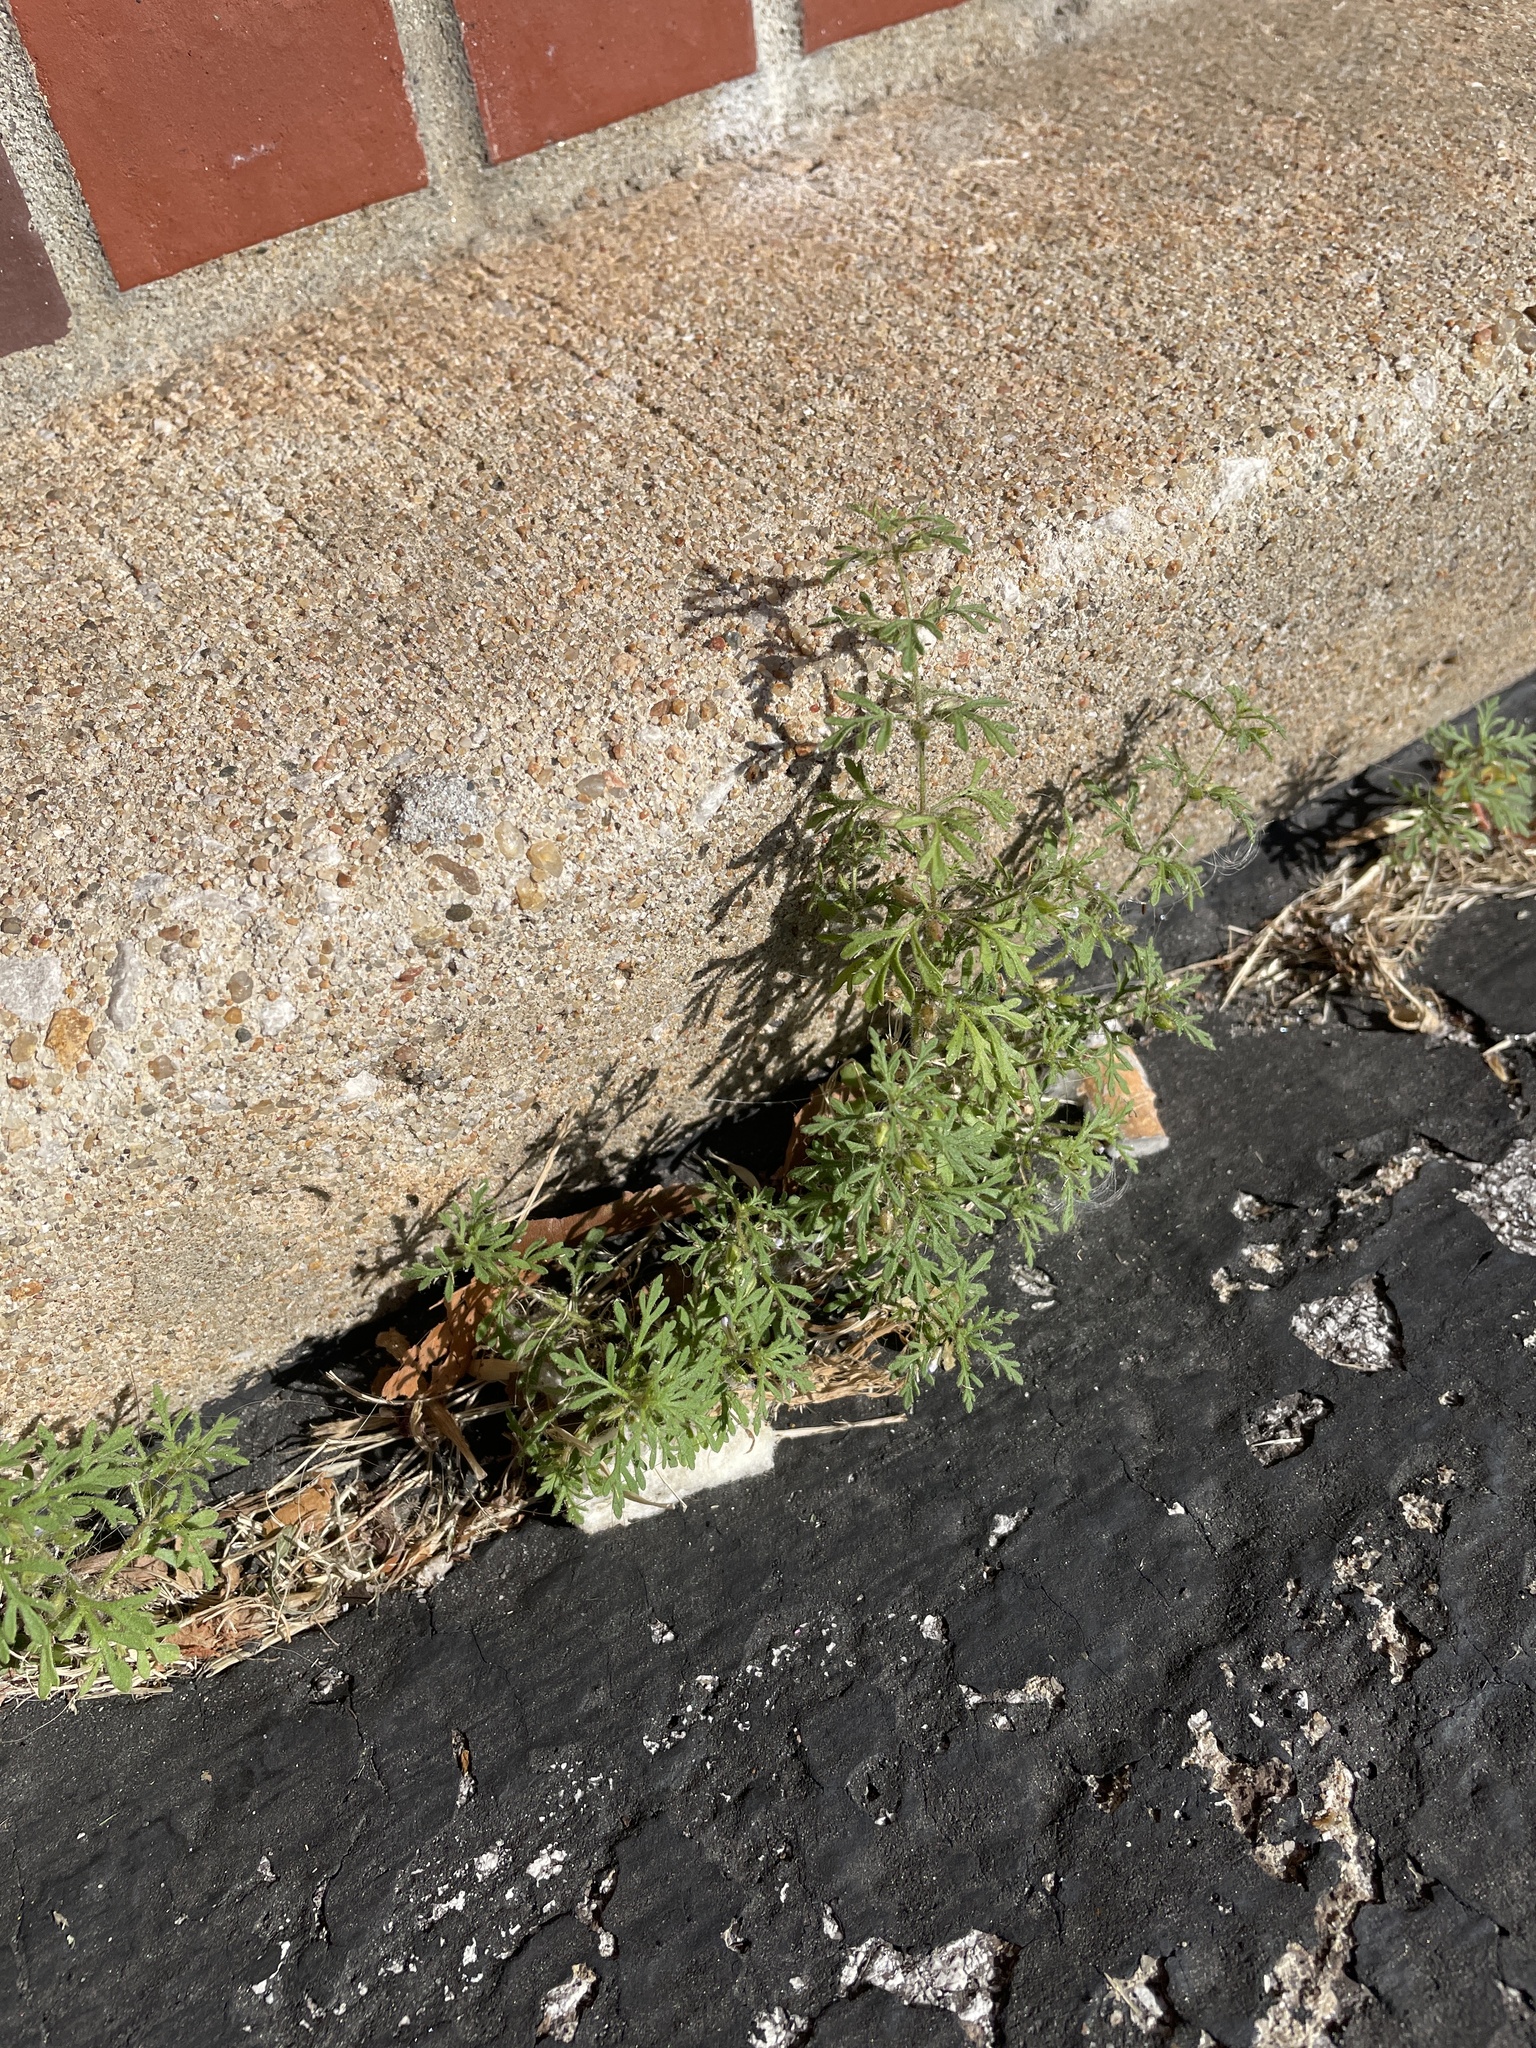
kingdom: Plantae
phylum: Tracheophyta
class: Magnoliopsida
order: Lamiales
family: Plantaginaceae
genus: Leucospora
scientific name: Leucospora multifida
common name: Narrow-leaf paleseed
